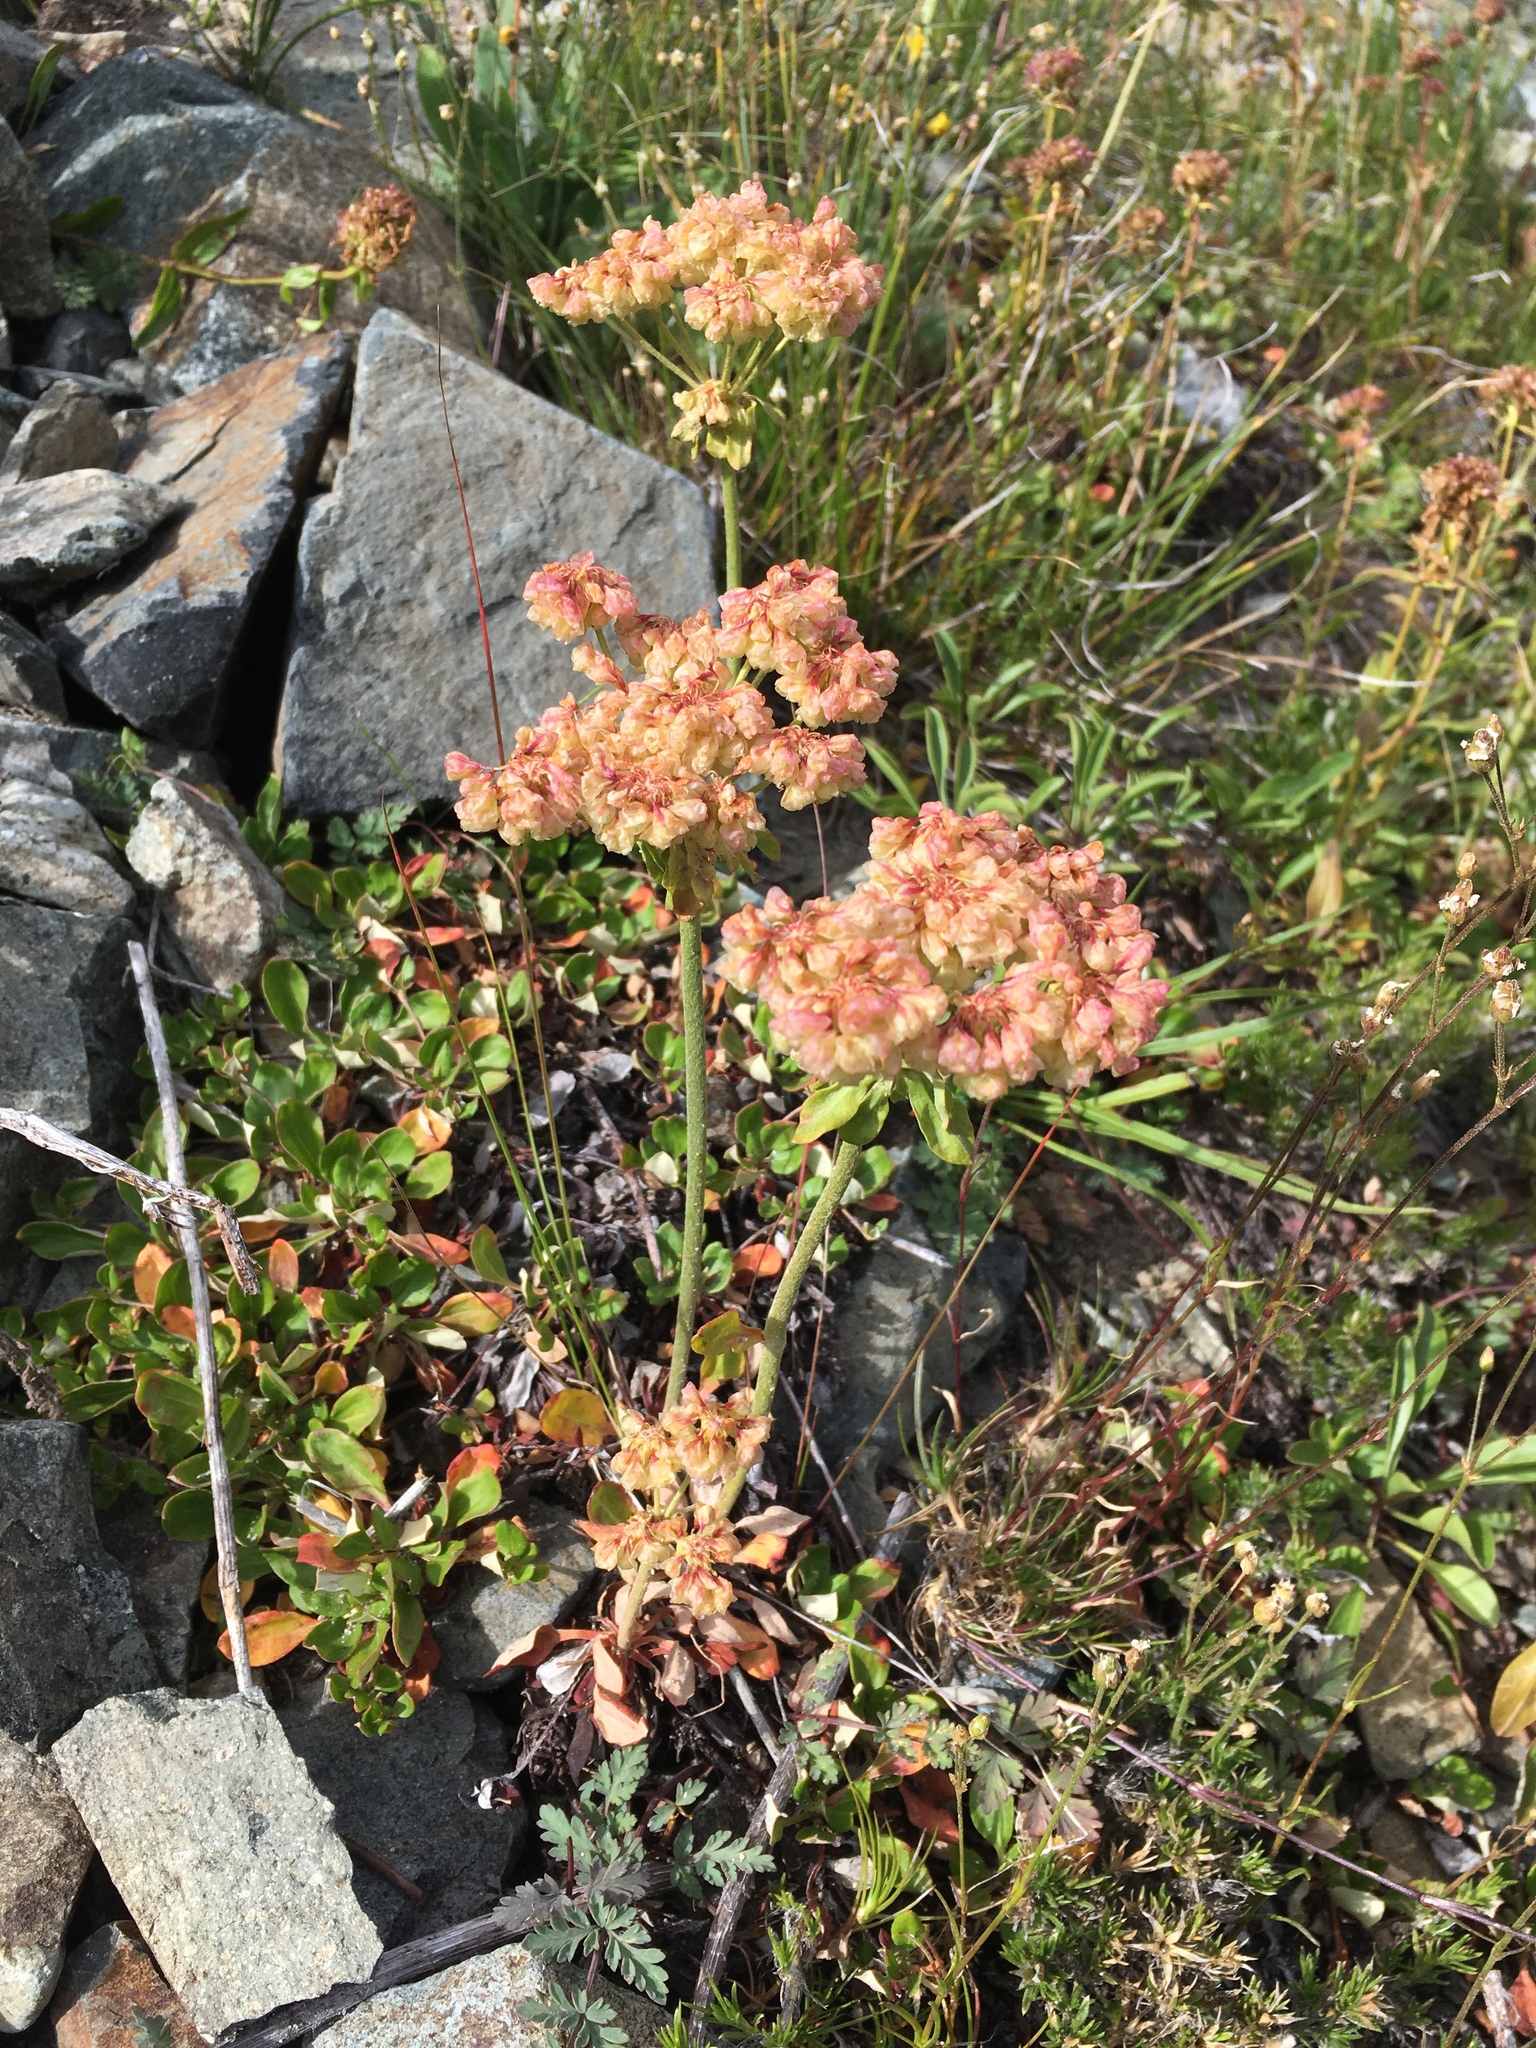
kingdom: Plantae
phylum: Tracheophyta
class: Magnoliopsida
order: Caryophyllales
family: Polygonaceae
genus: Eriogonum
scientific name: Eriogonum umbellatum
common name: Sulfur-buckwheat
